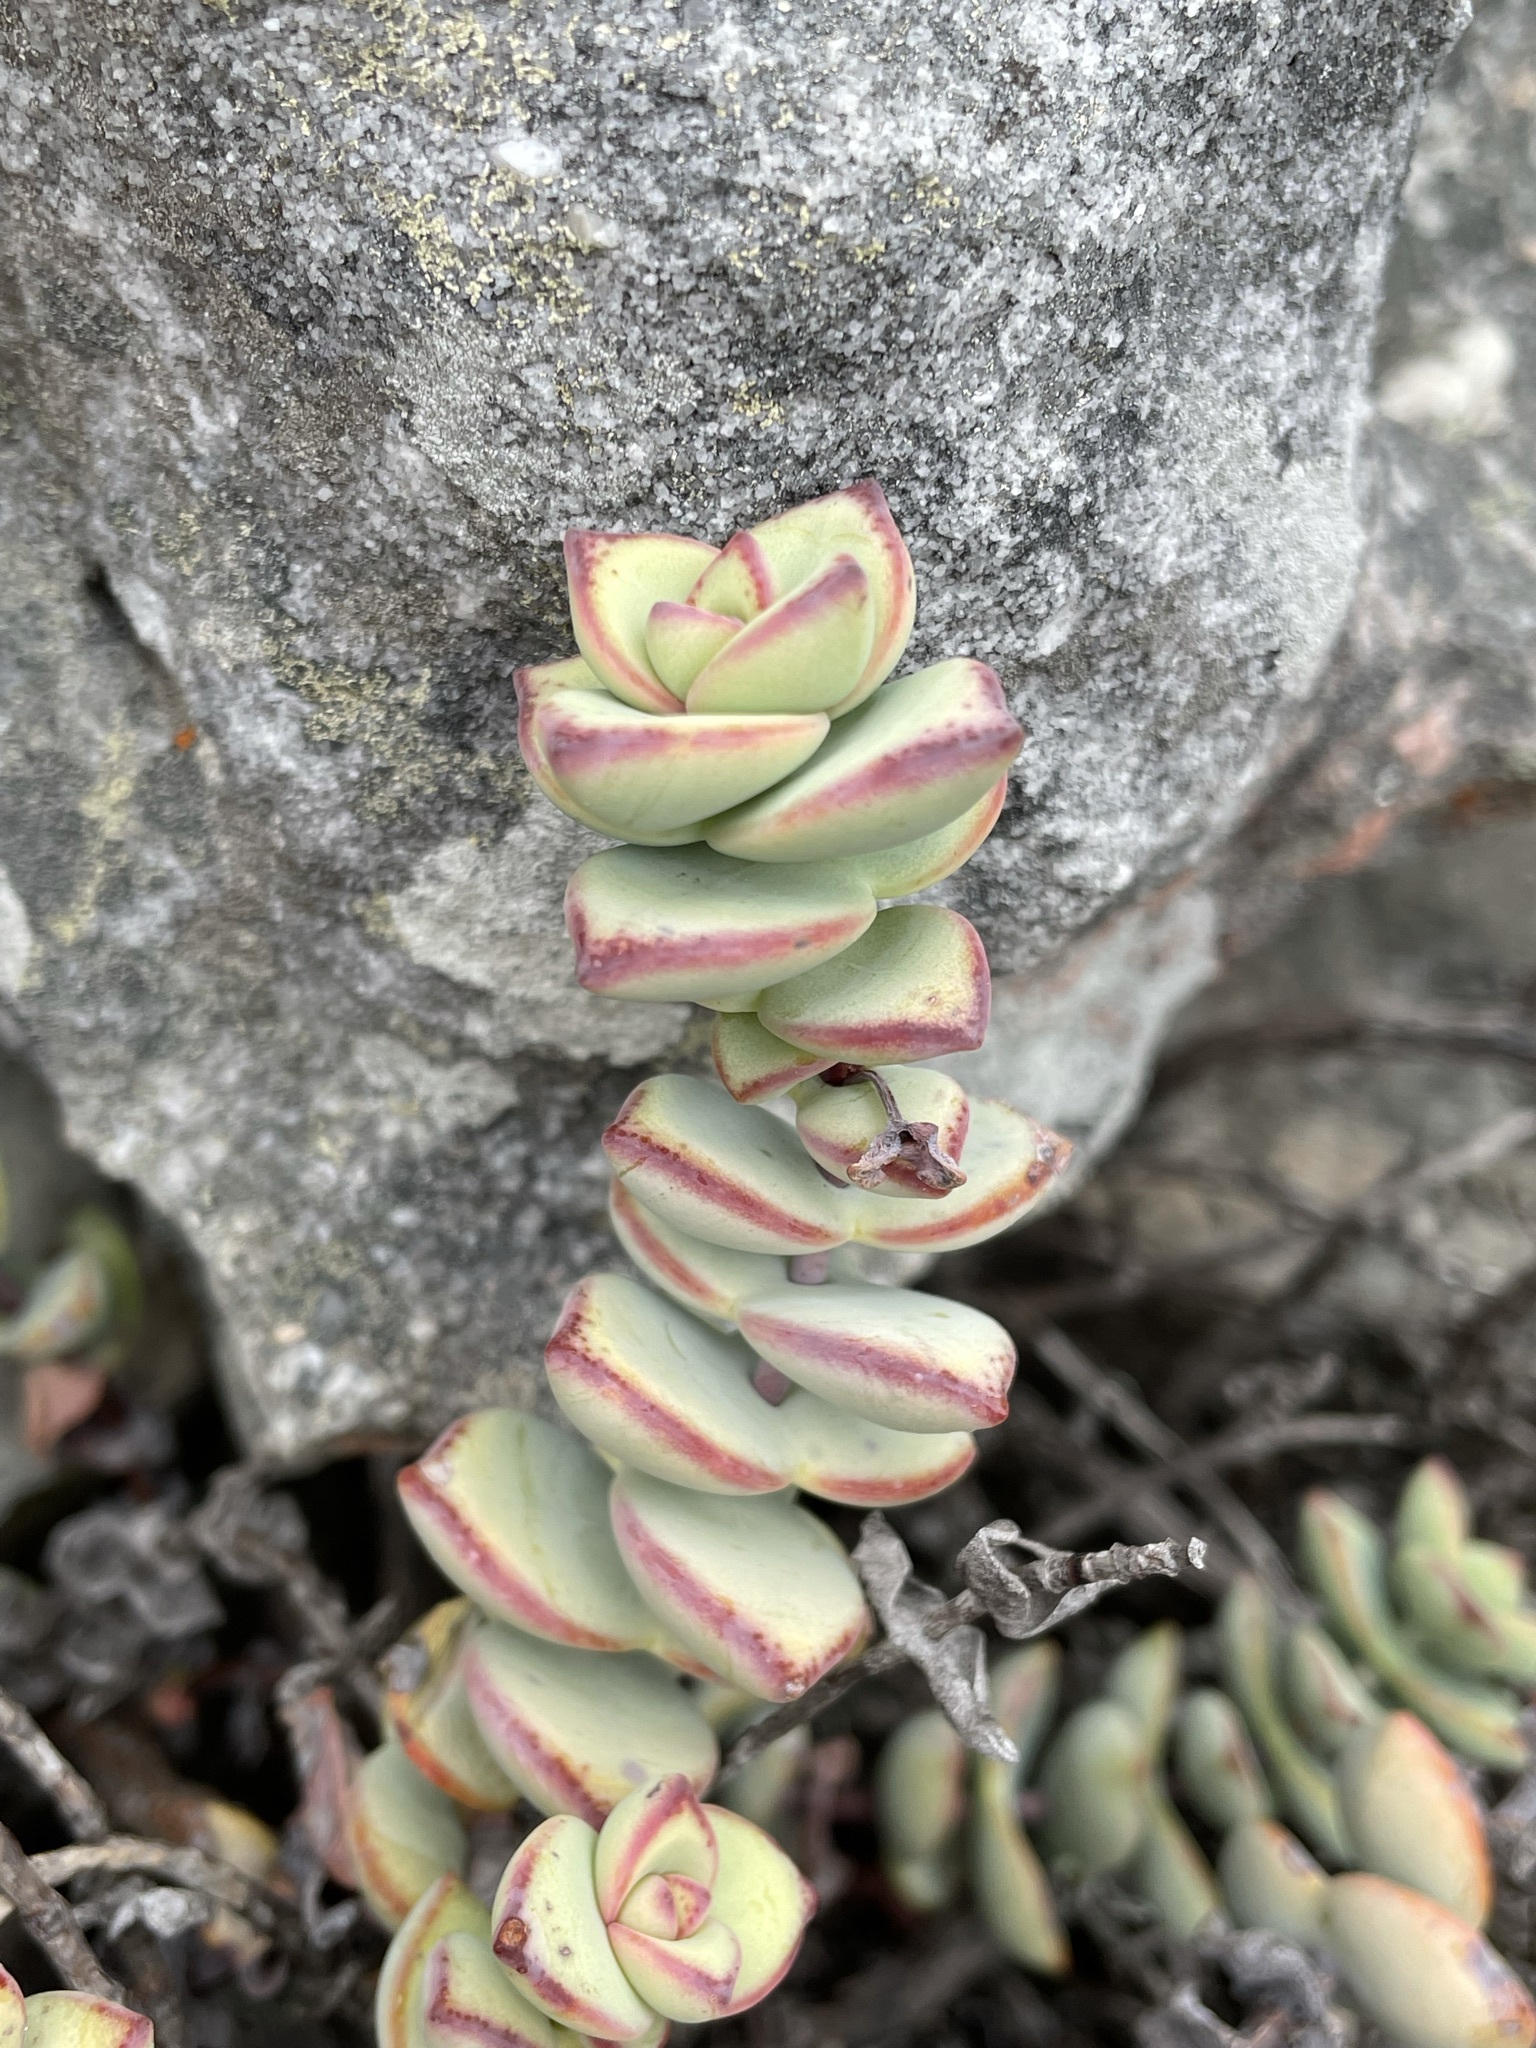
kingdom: Plantae
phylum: Tracheophyta
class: Magnoliopsida
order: Saxifragales
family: Crassulaceae
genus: Crassula
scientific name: Crassula rupestris
